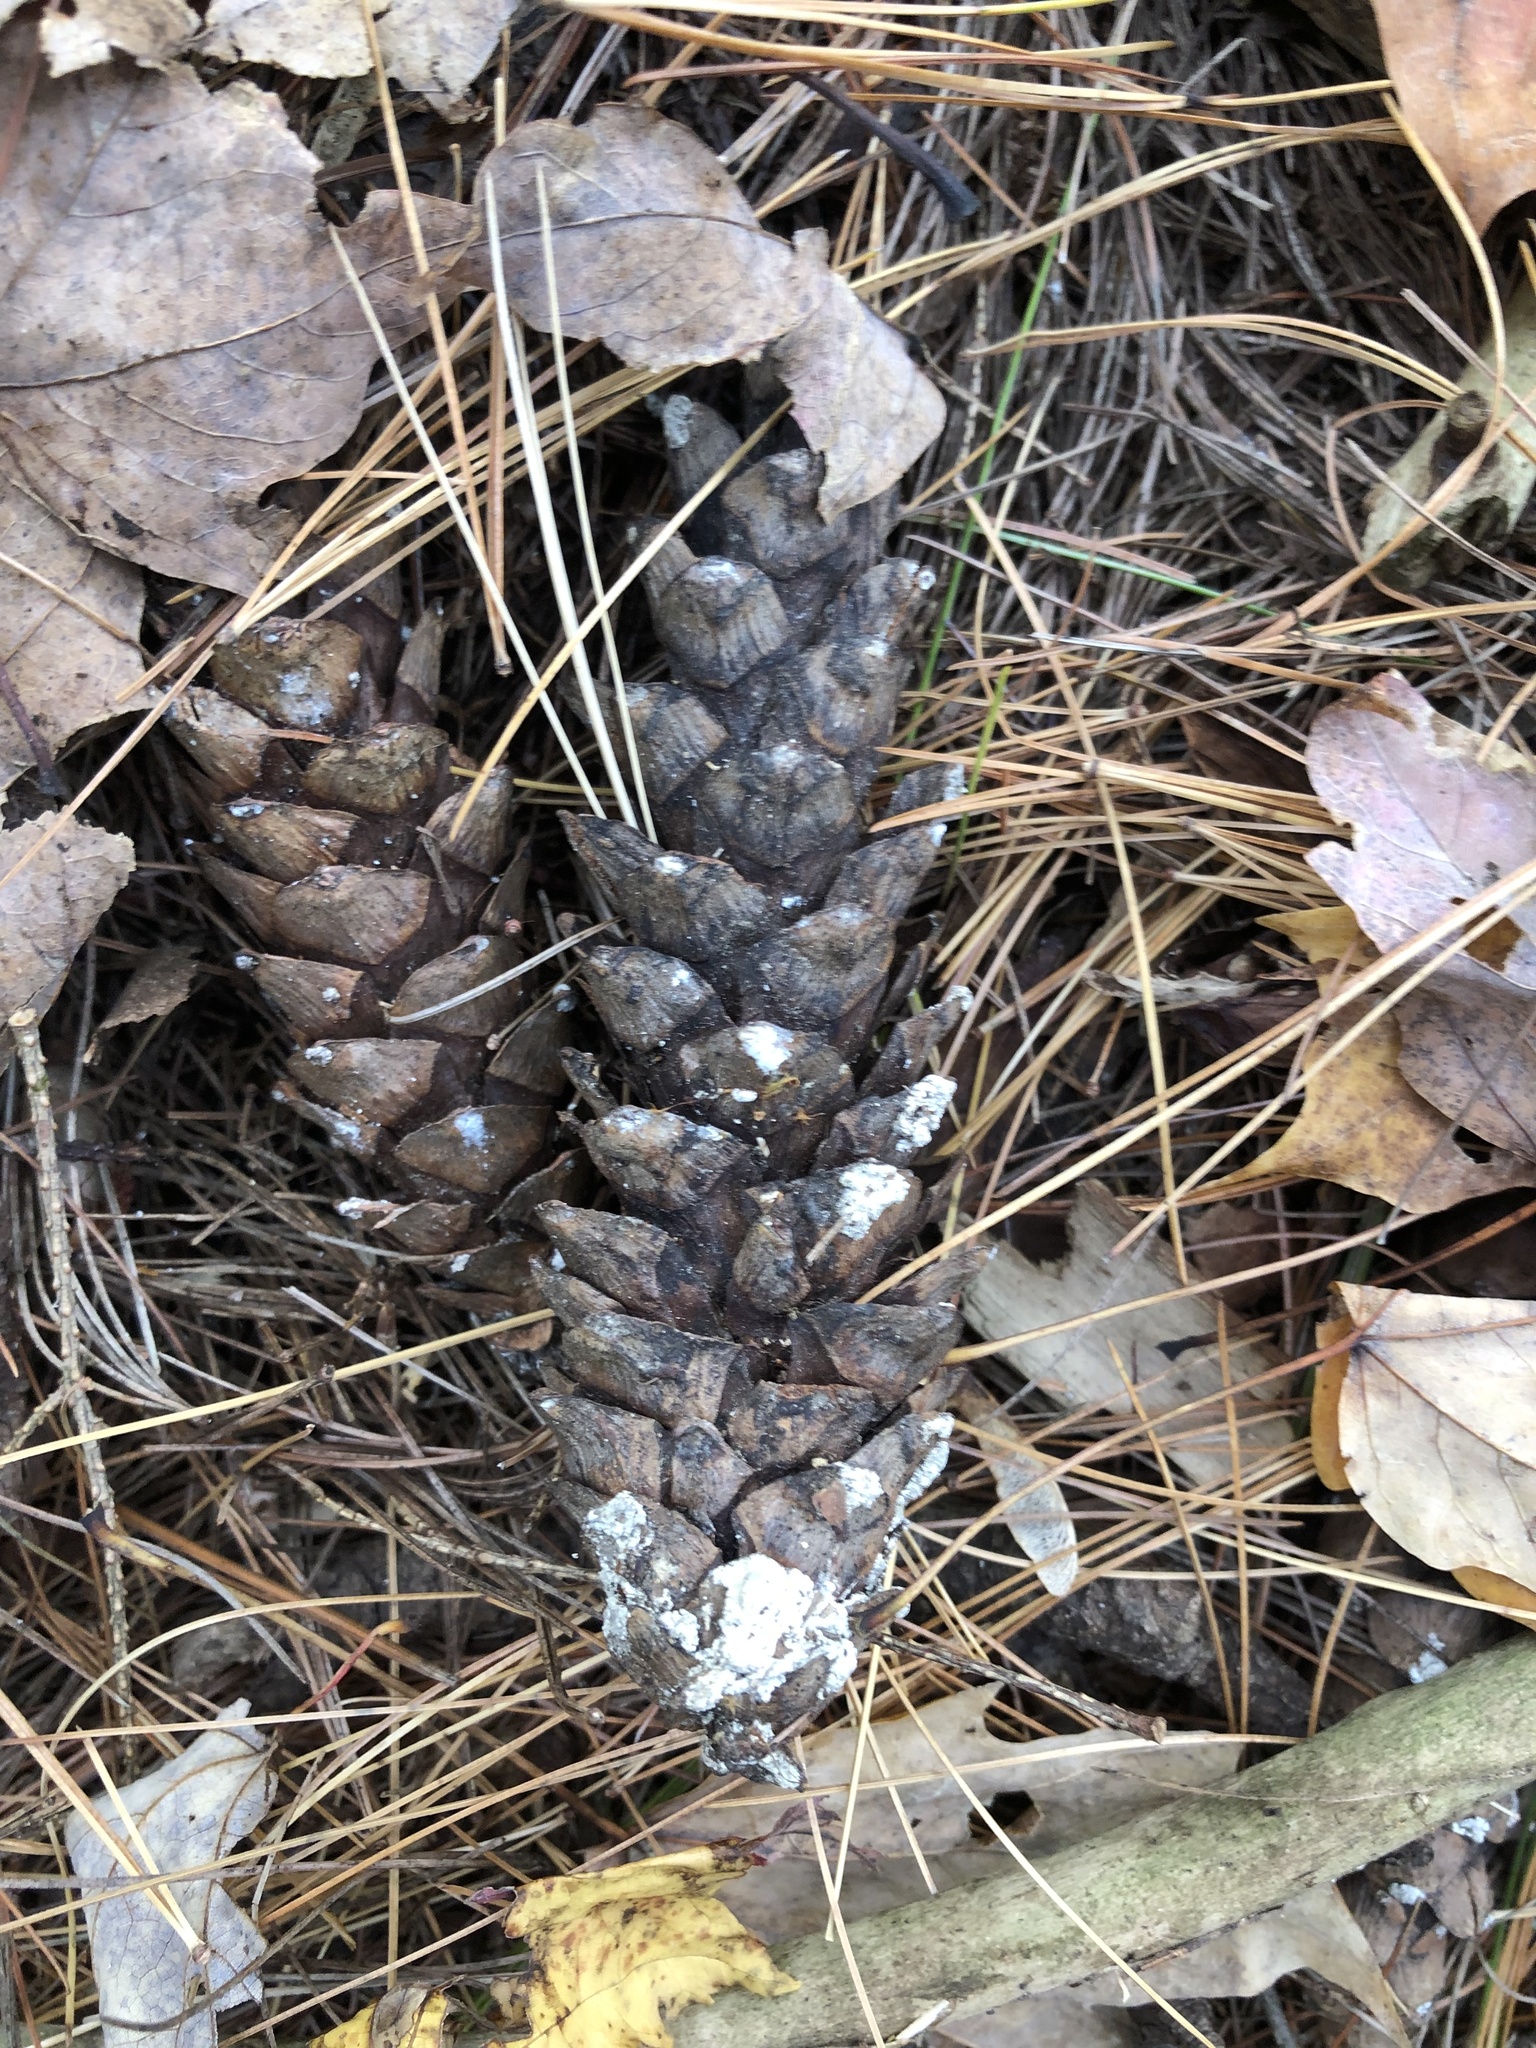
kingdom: Plantae
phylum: Tracheophyta
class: Pinopsida
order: Pinales
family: Pinaceae
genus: Pinus
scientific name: Pinus strobus
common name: Weymouth pine
